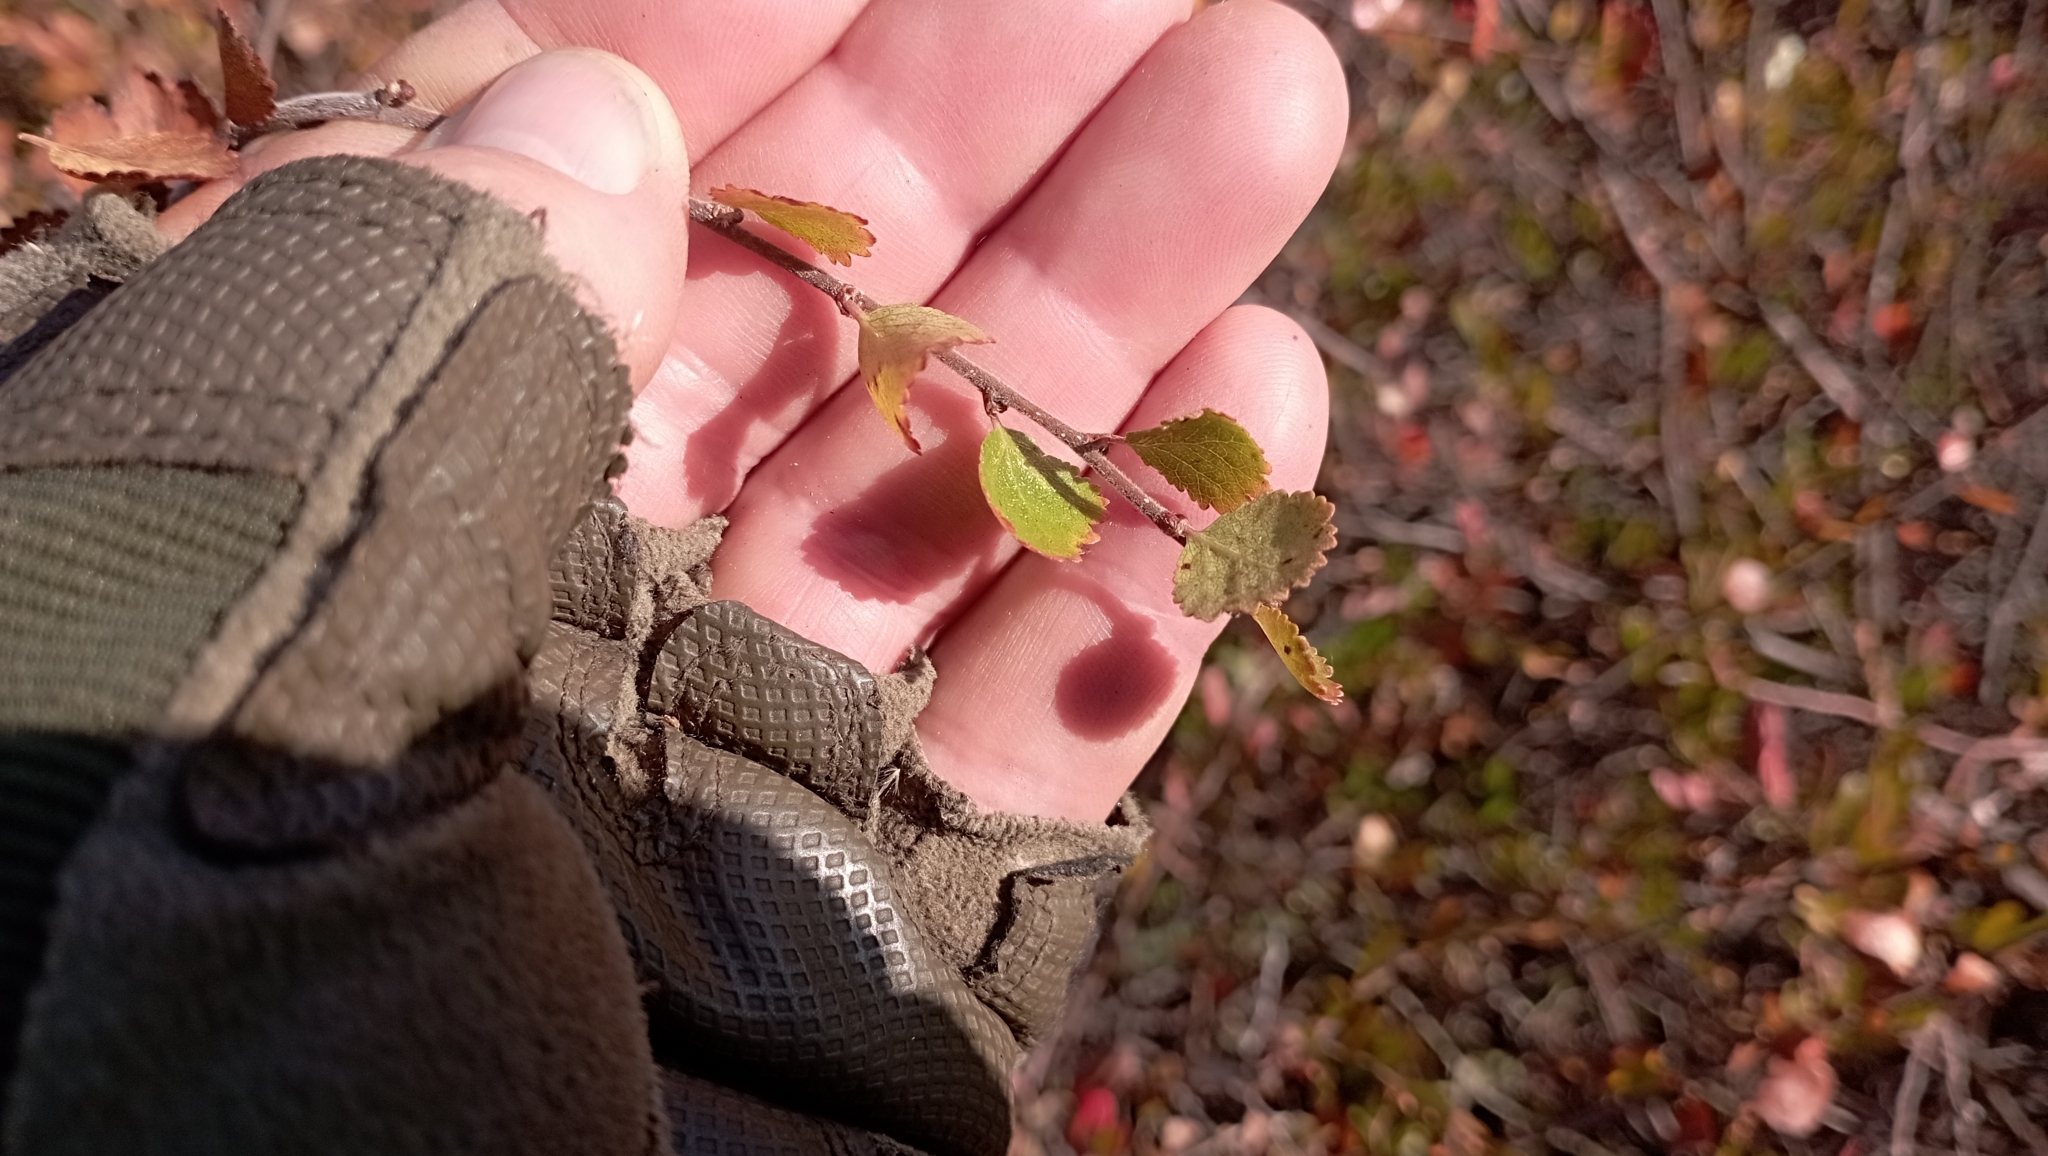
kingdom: Plantae
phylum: Tracheophyta
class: Magnoliopsida
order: Fagales
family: Betulaceae
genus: Betula
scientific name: Betula nana
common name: Arctic dwarf birch
